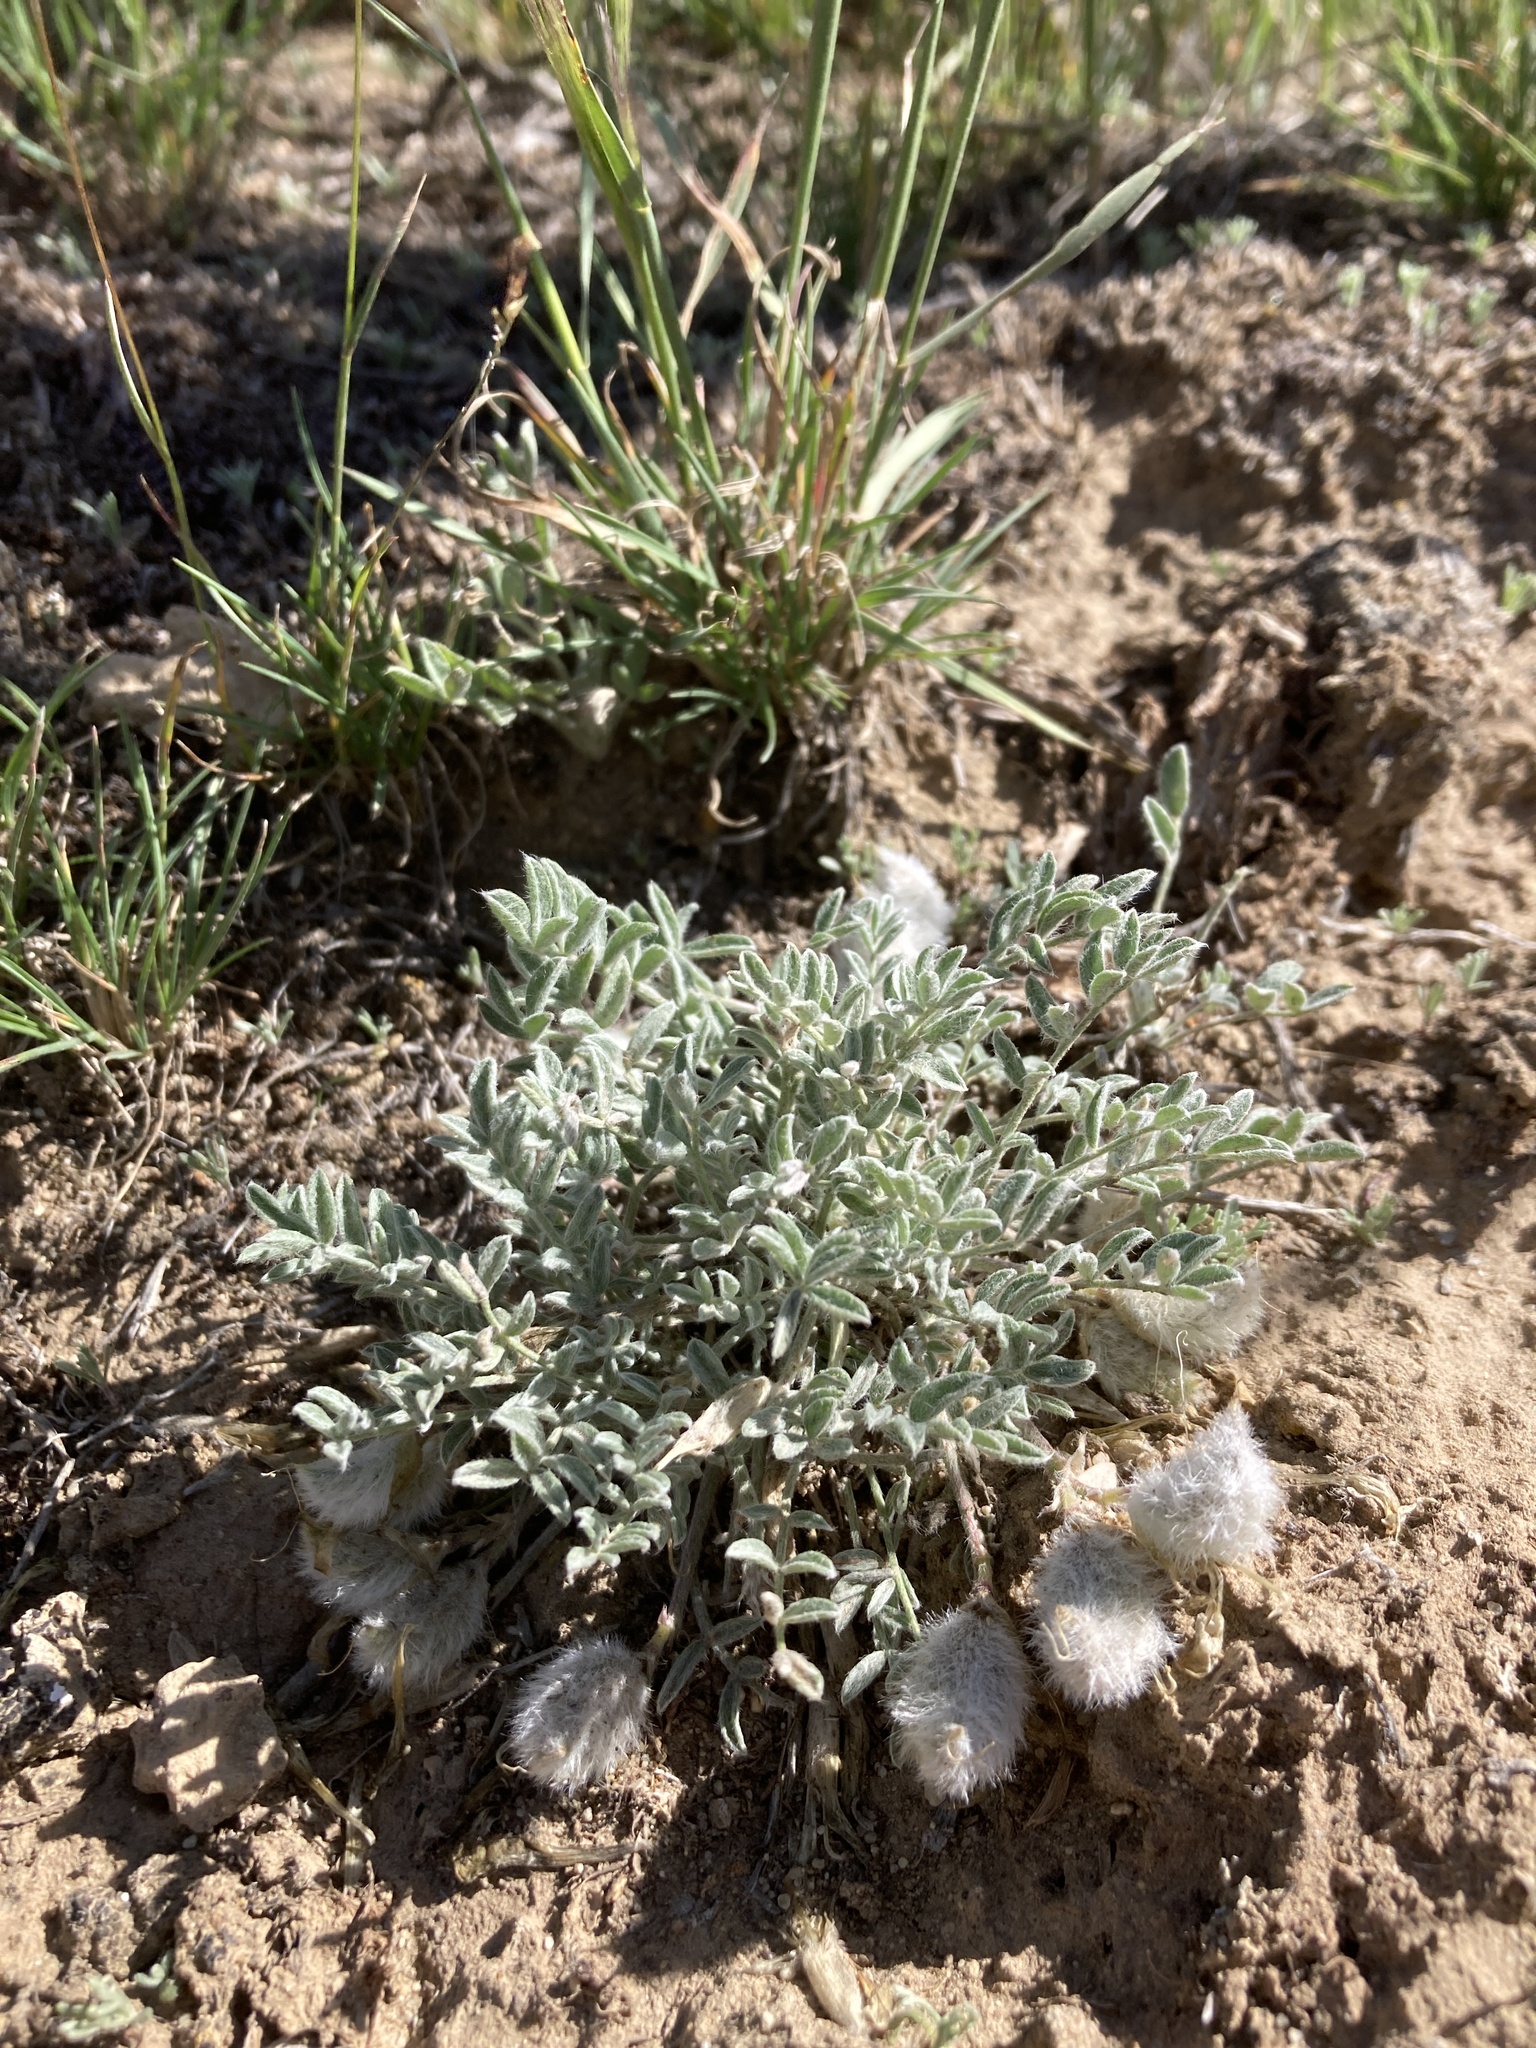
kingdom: Plantae
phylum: Tracheophyta
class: Magnoliopsida
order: Fabales
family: Fabaceae
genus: Astragalus
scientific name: Astragalus purshii
